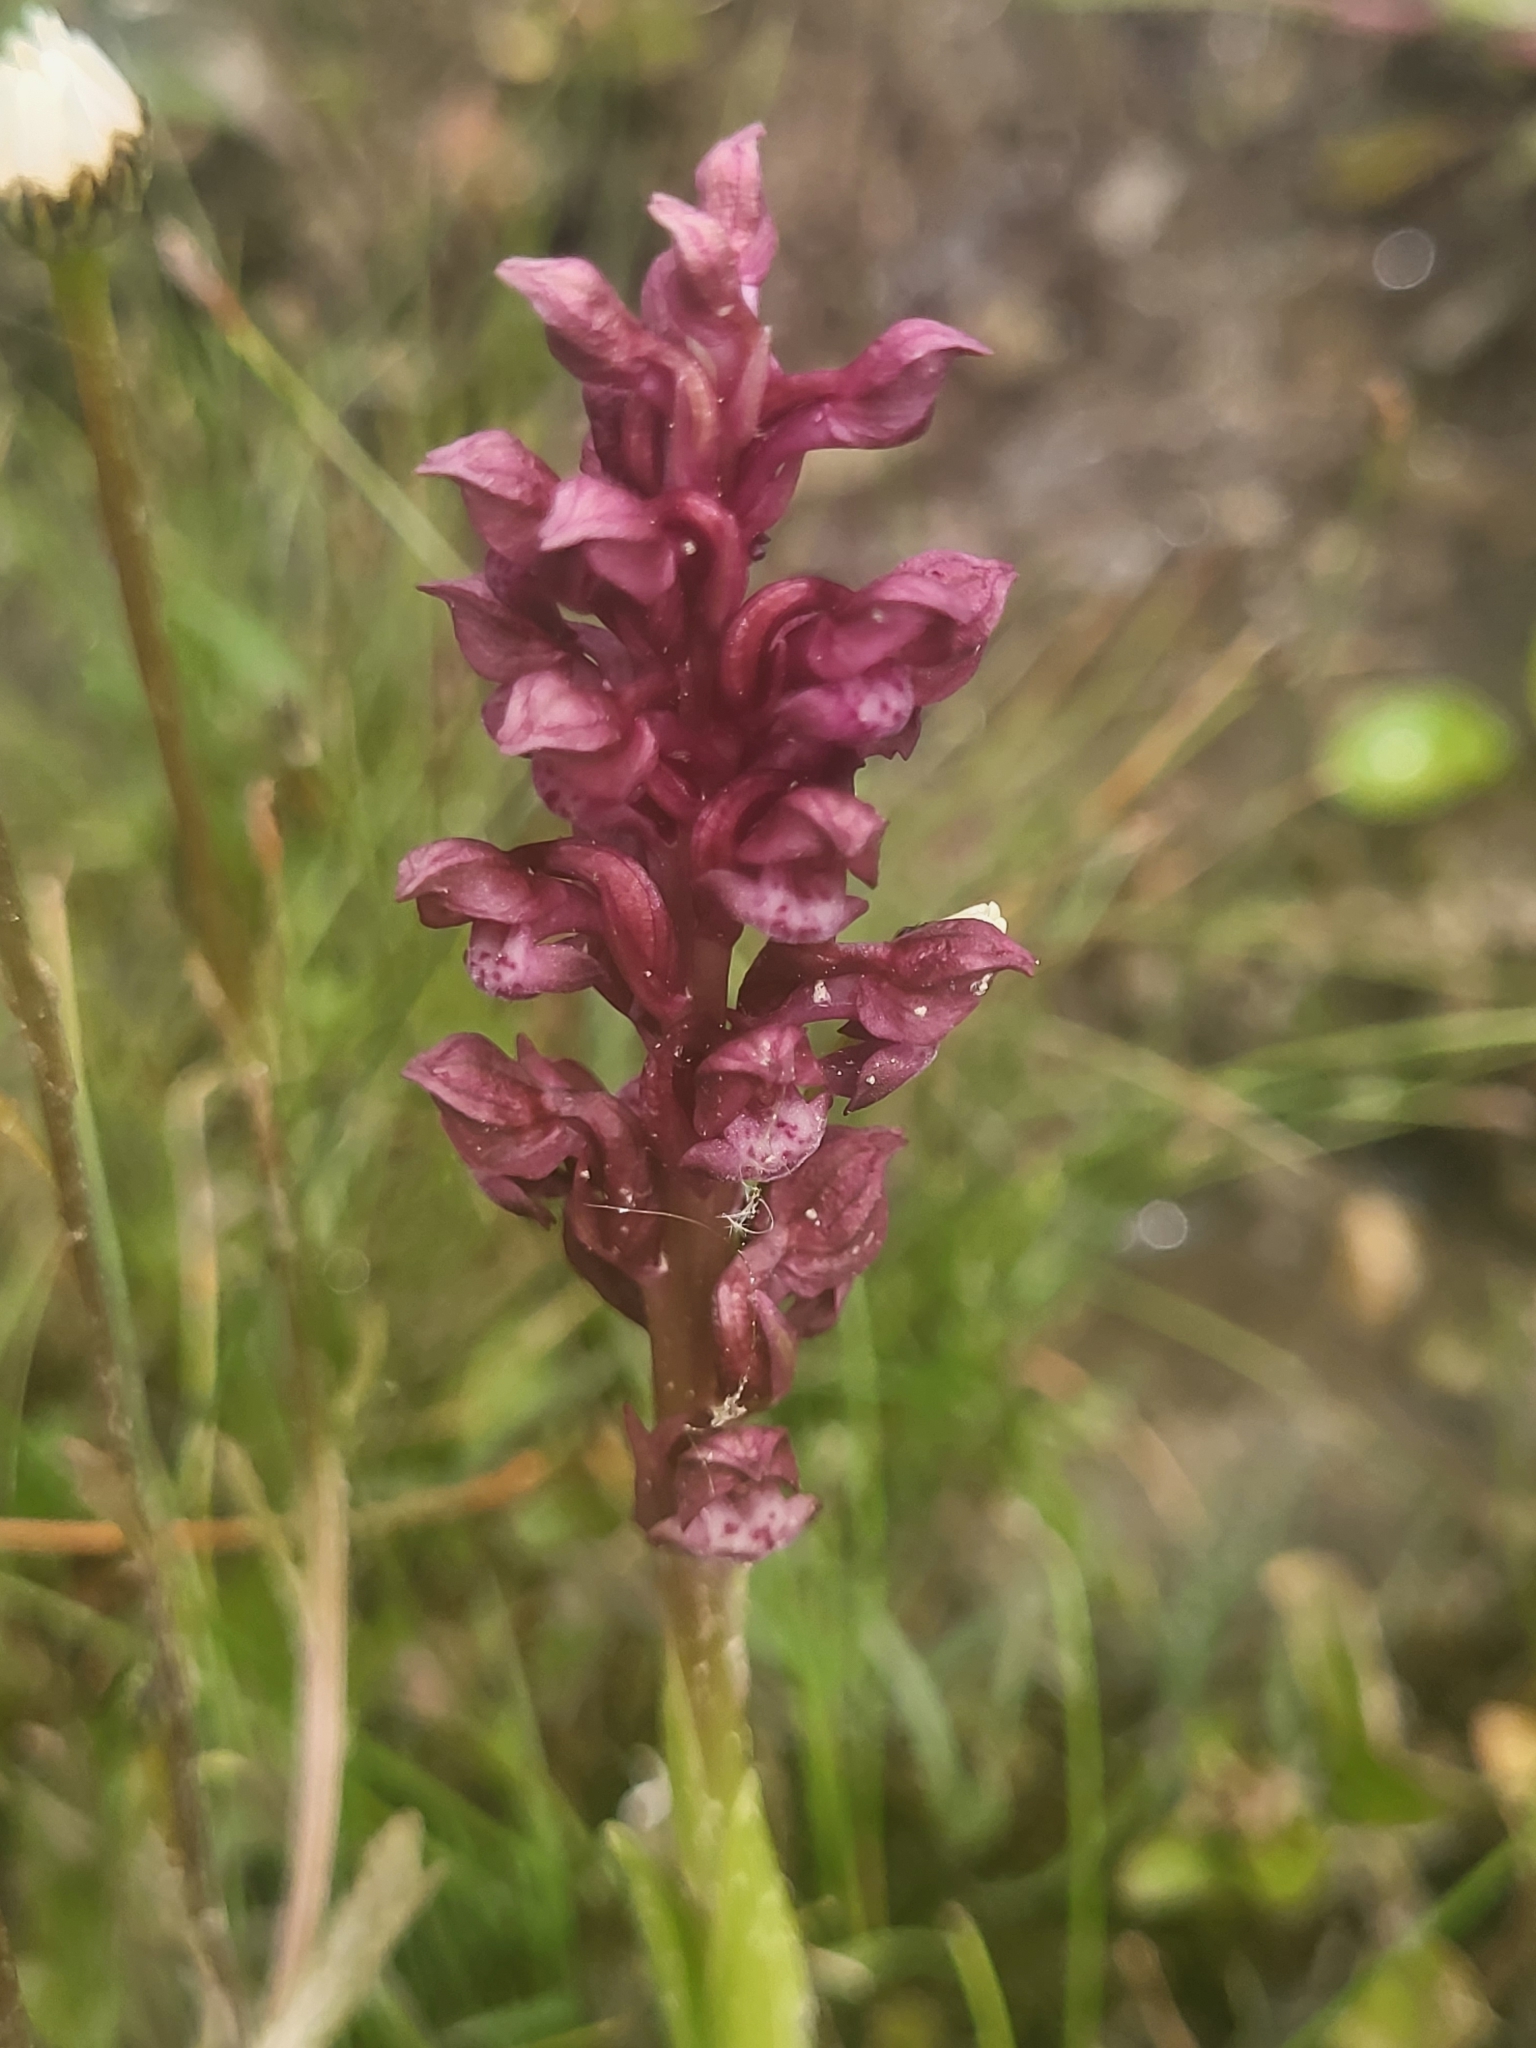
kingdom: Plantae
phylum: Tracheophyta
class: Liliopsida
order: Asparagales
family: Orchidaceae
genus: Anacamptis
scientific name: Anacamptis coriophora
